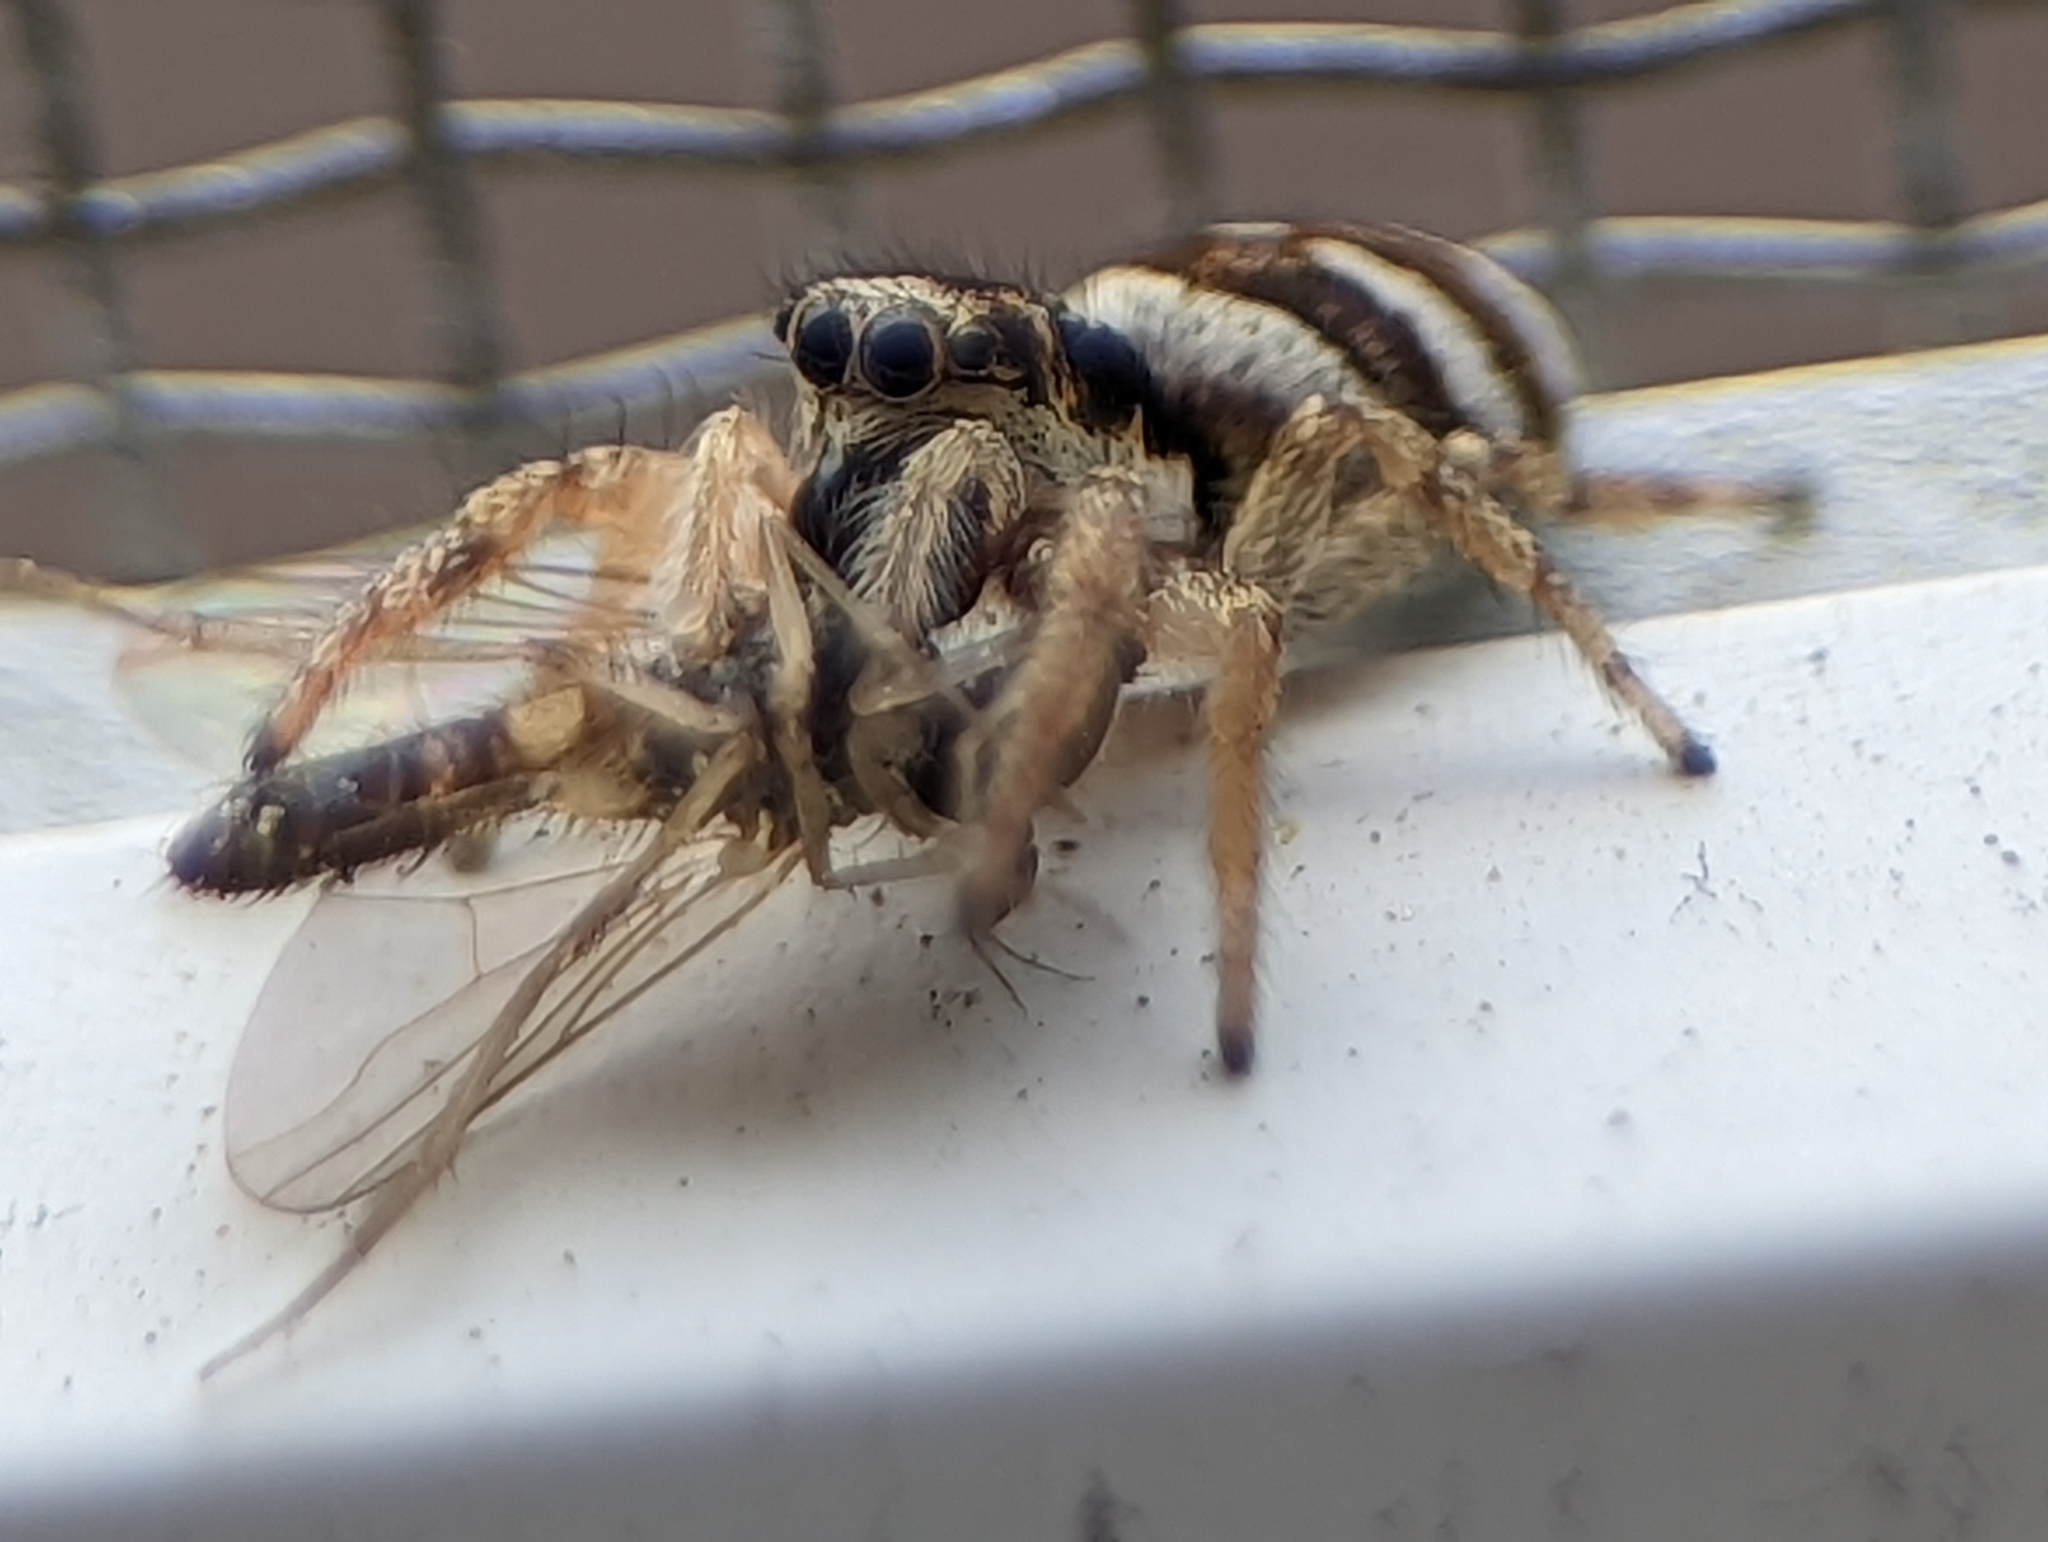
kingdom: Animalia
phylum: Arthropoda
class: Arachnida
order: Araneae
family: Salticidae
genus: Salticus
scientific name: Salticus scenicus
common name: Zebra jumper
